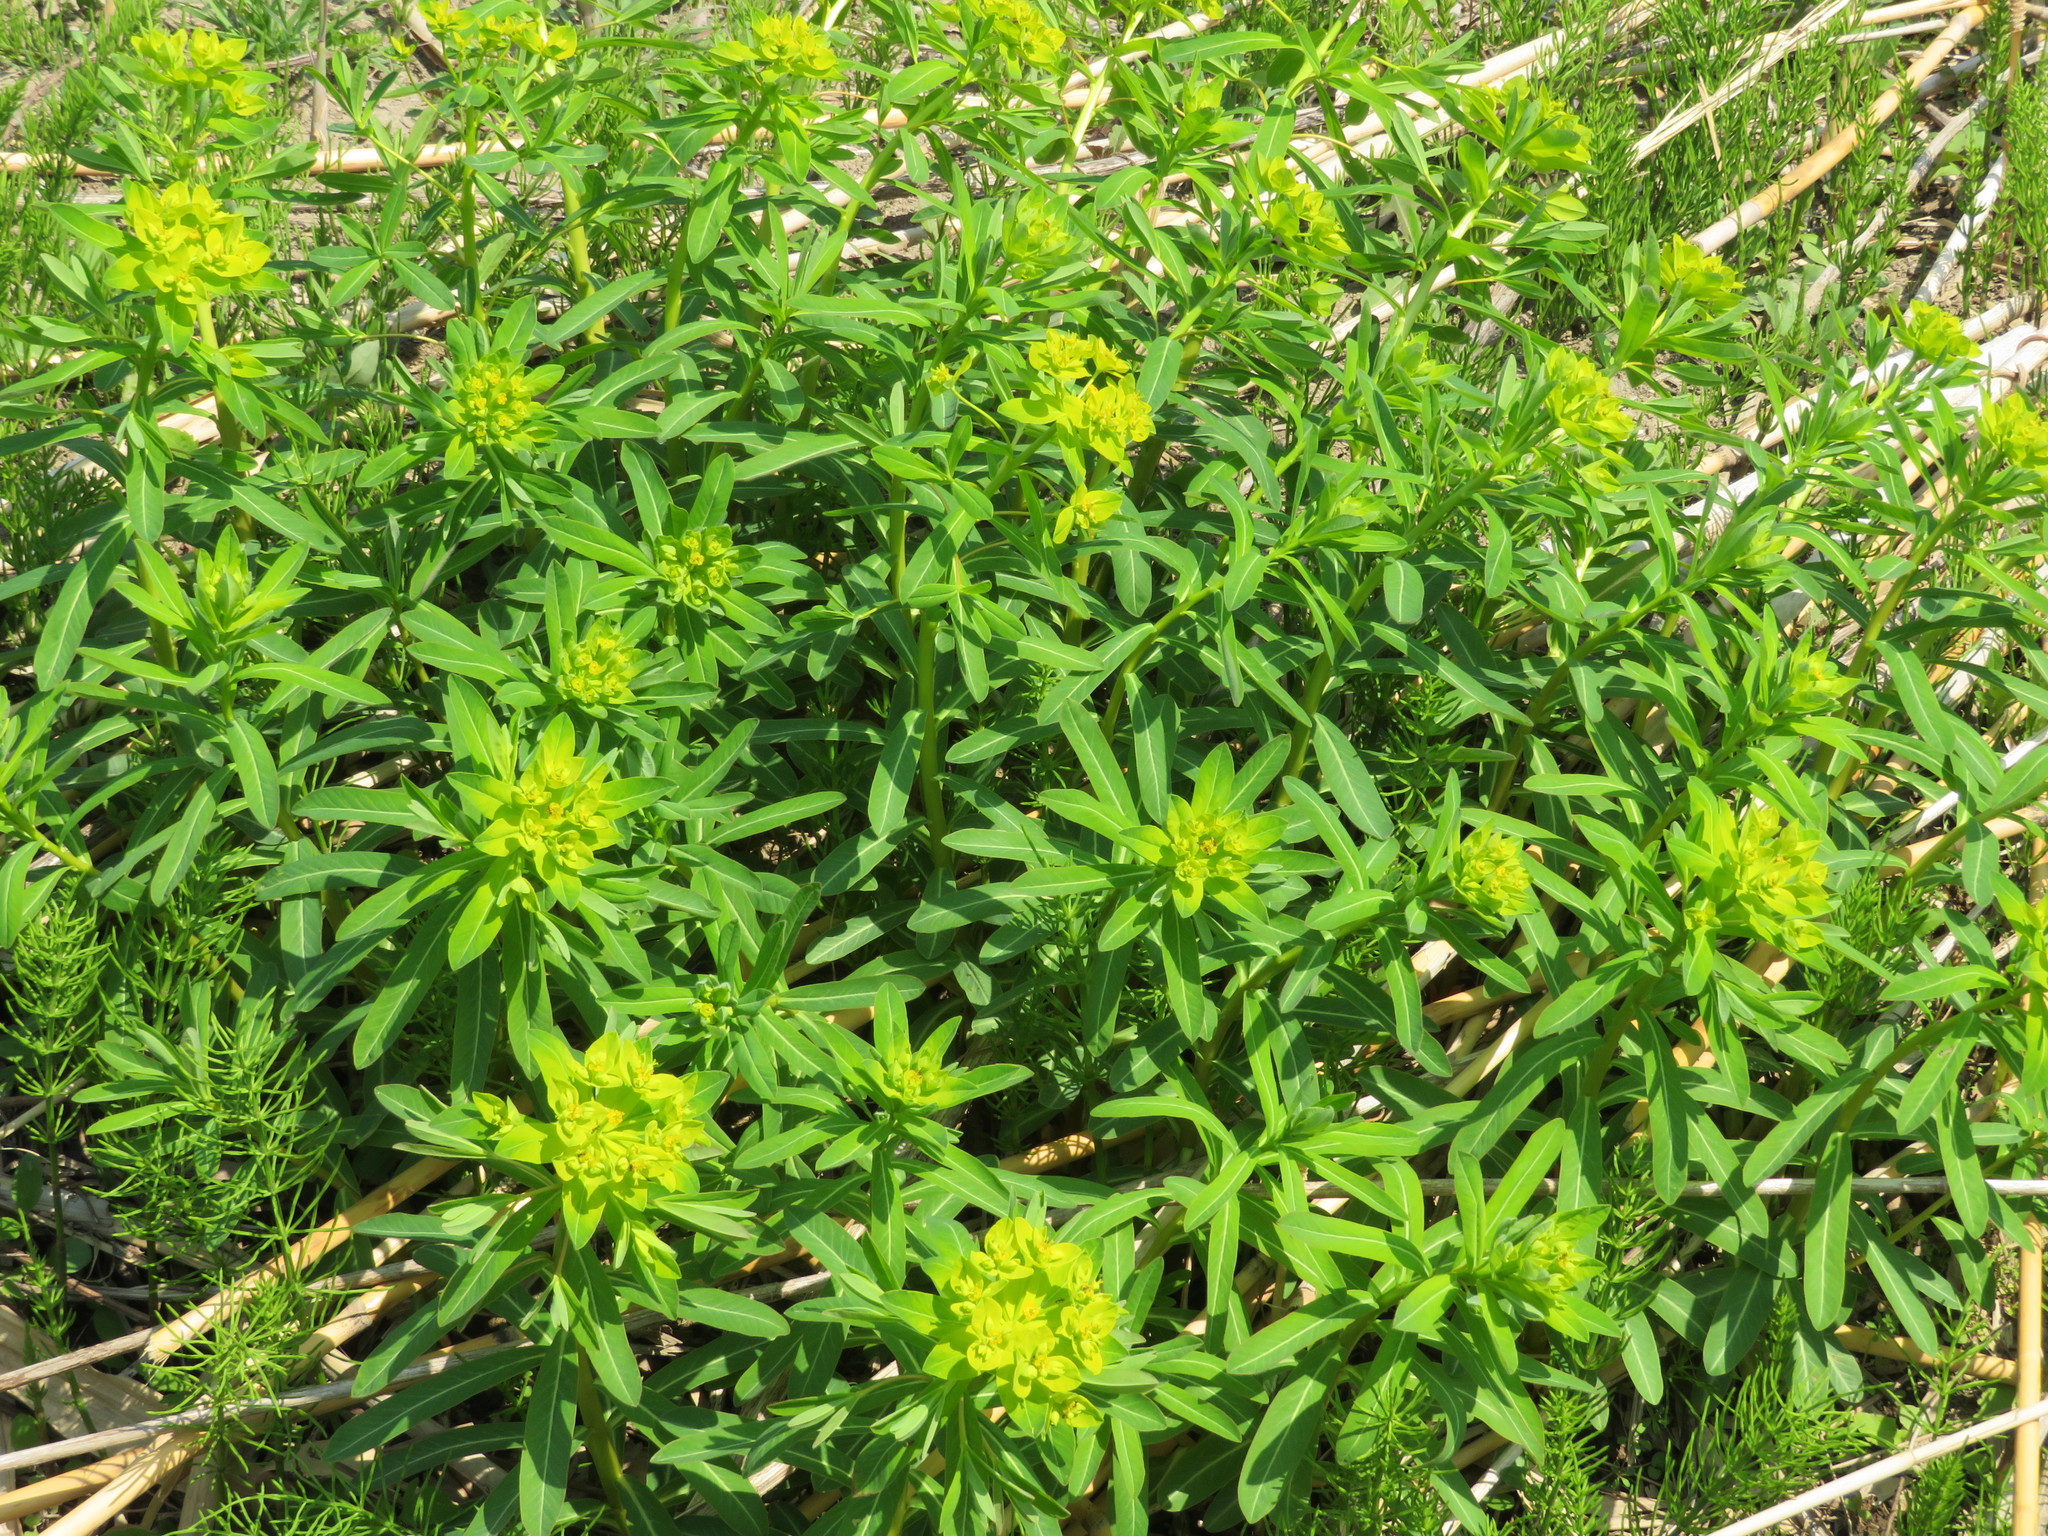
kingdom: Plantae
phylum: Tracheophyta
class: Magnoliopsida
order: Malpighiales
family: Euphorbiaceae
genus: Euphorbia
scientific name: Euphorbia adenochlora
